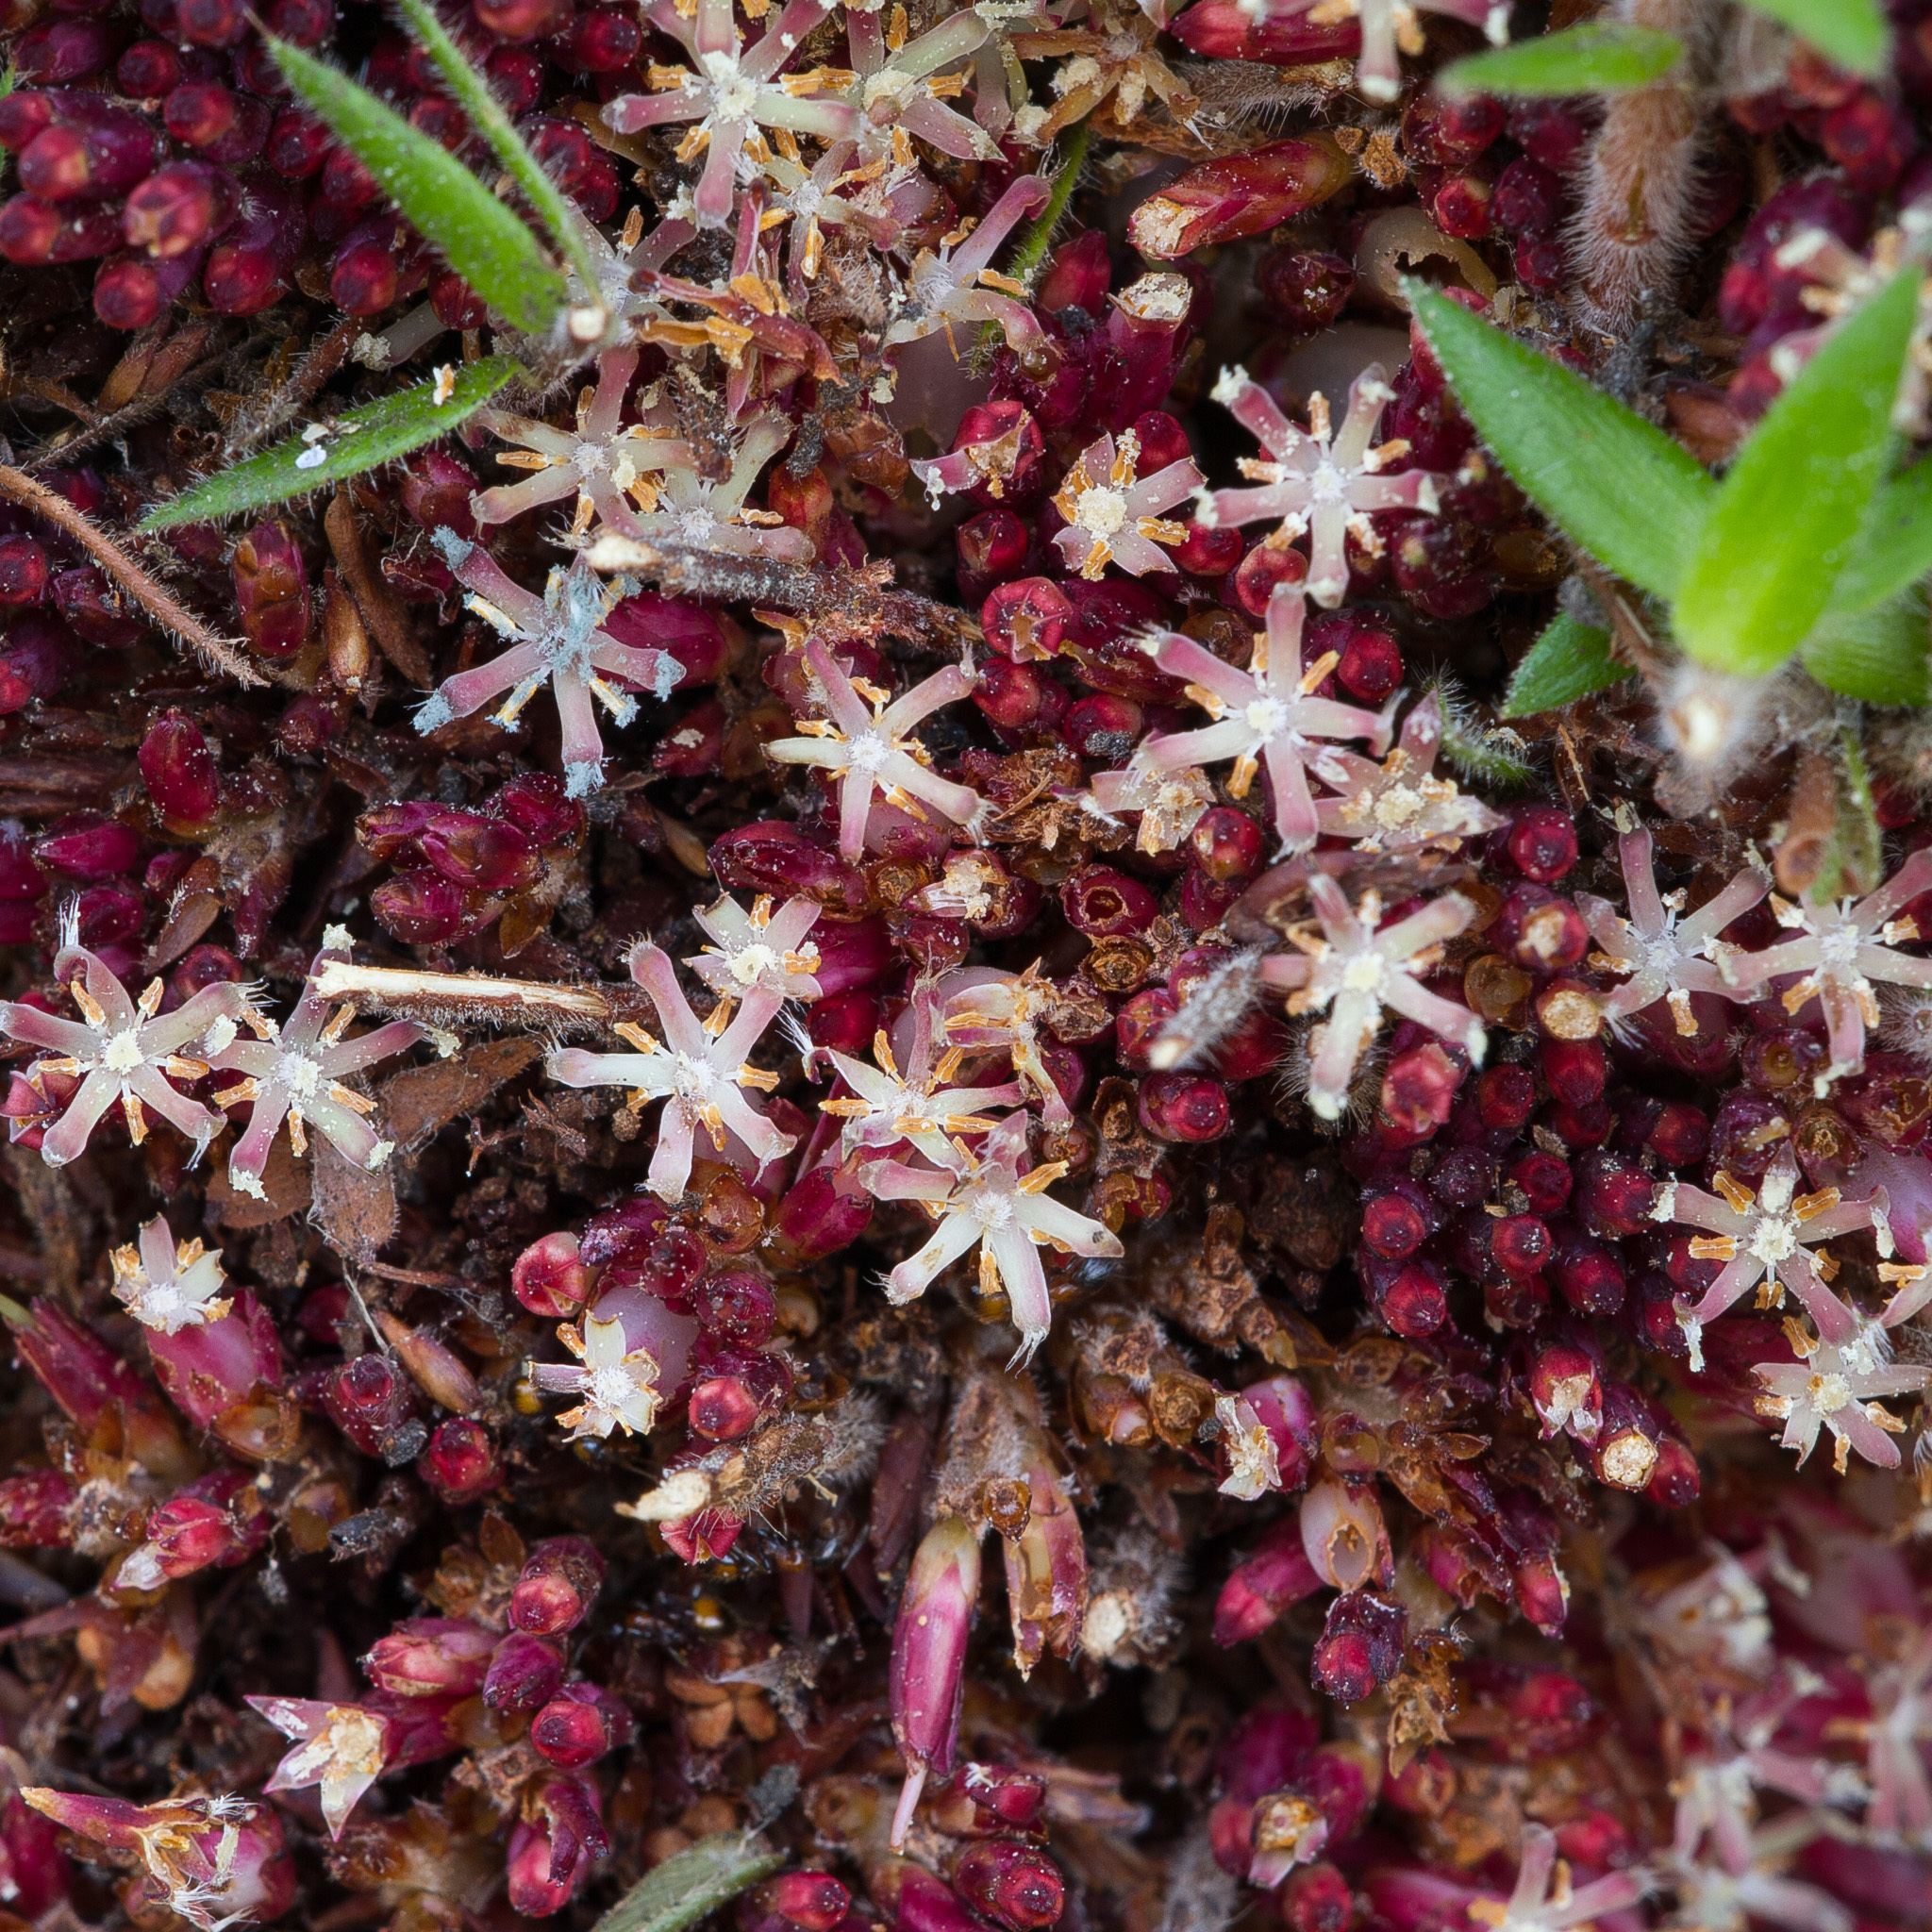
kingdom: Plantae
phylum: Tracheophyta
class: Magnoliopsida
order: Ericales
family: Ericaceae
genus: Acrotriche
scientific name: Acrotriche fasciculiflora
